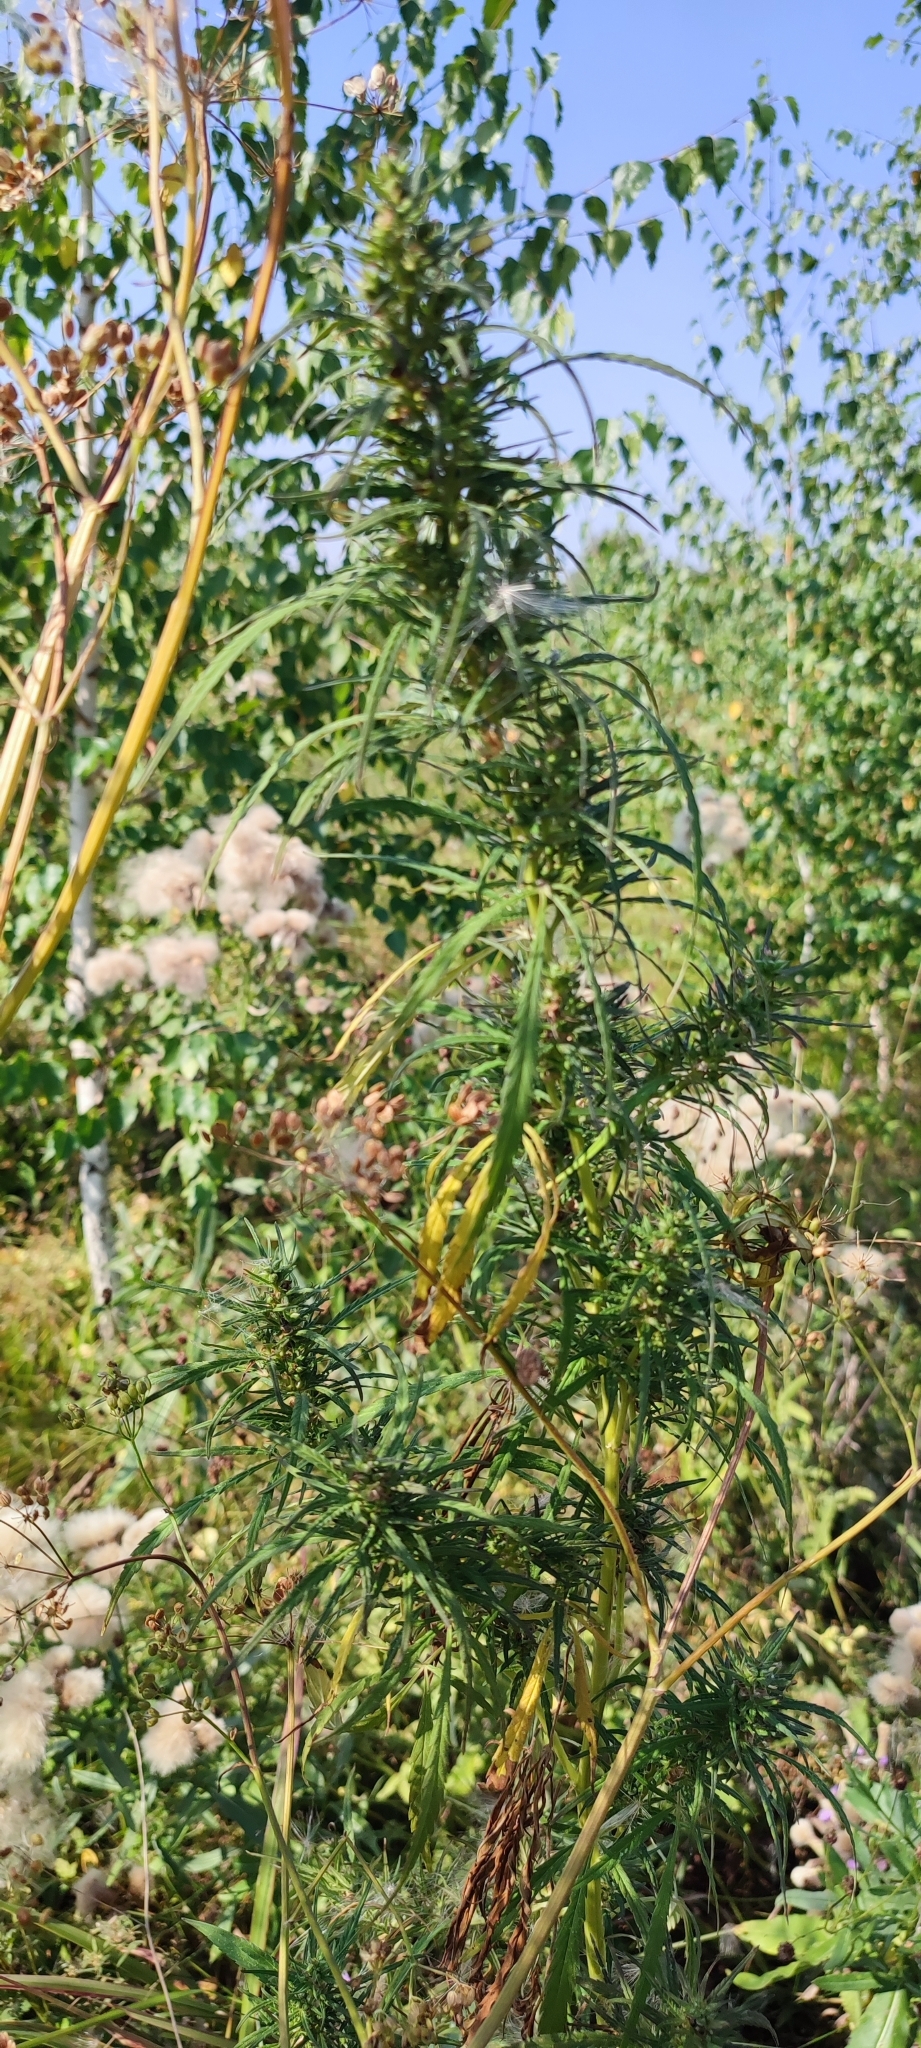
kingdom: Plantae
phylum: Tracheophyta
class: Magnoliopsida
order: Rosales
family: Cannabaceae
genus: Cannabis
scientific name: Cannabis sativa
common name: Hemp
